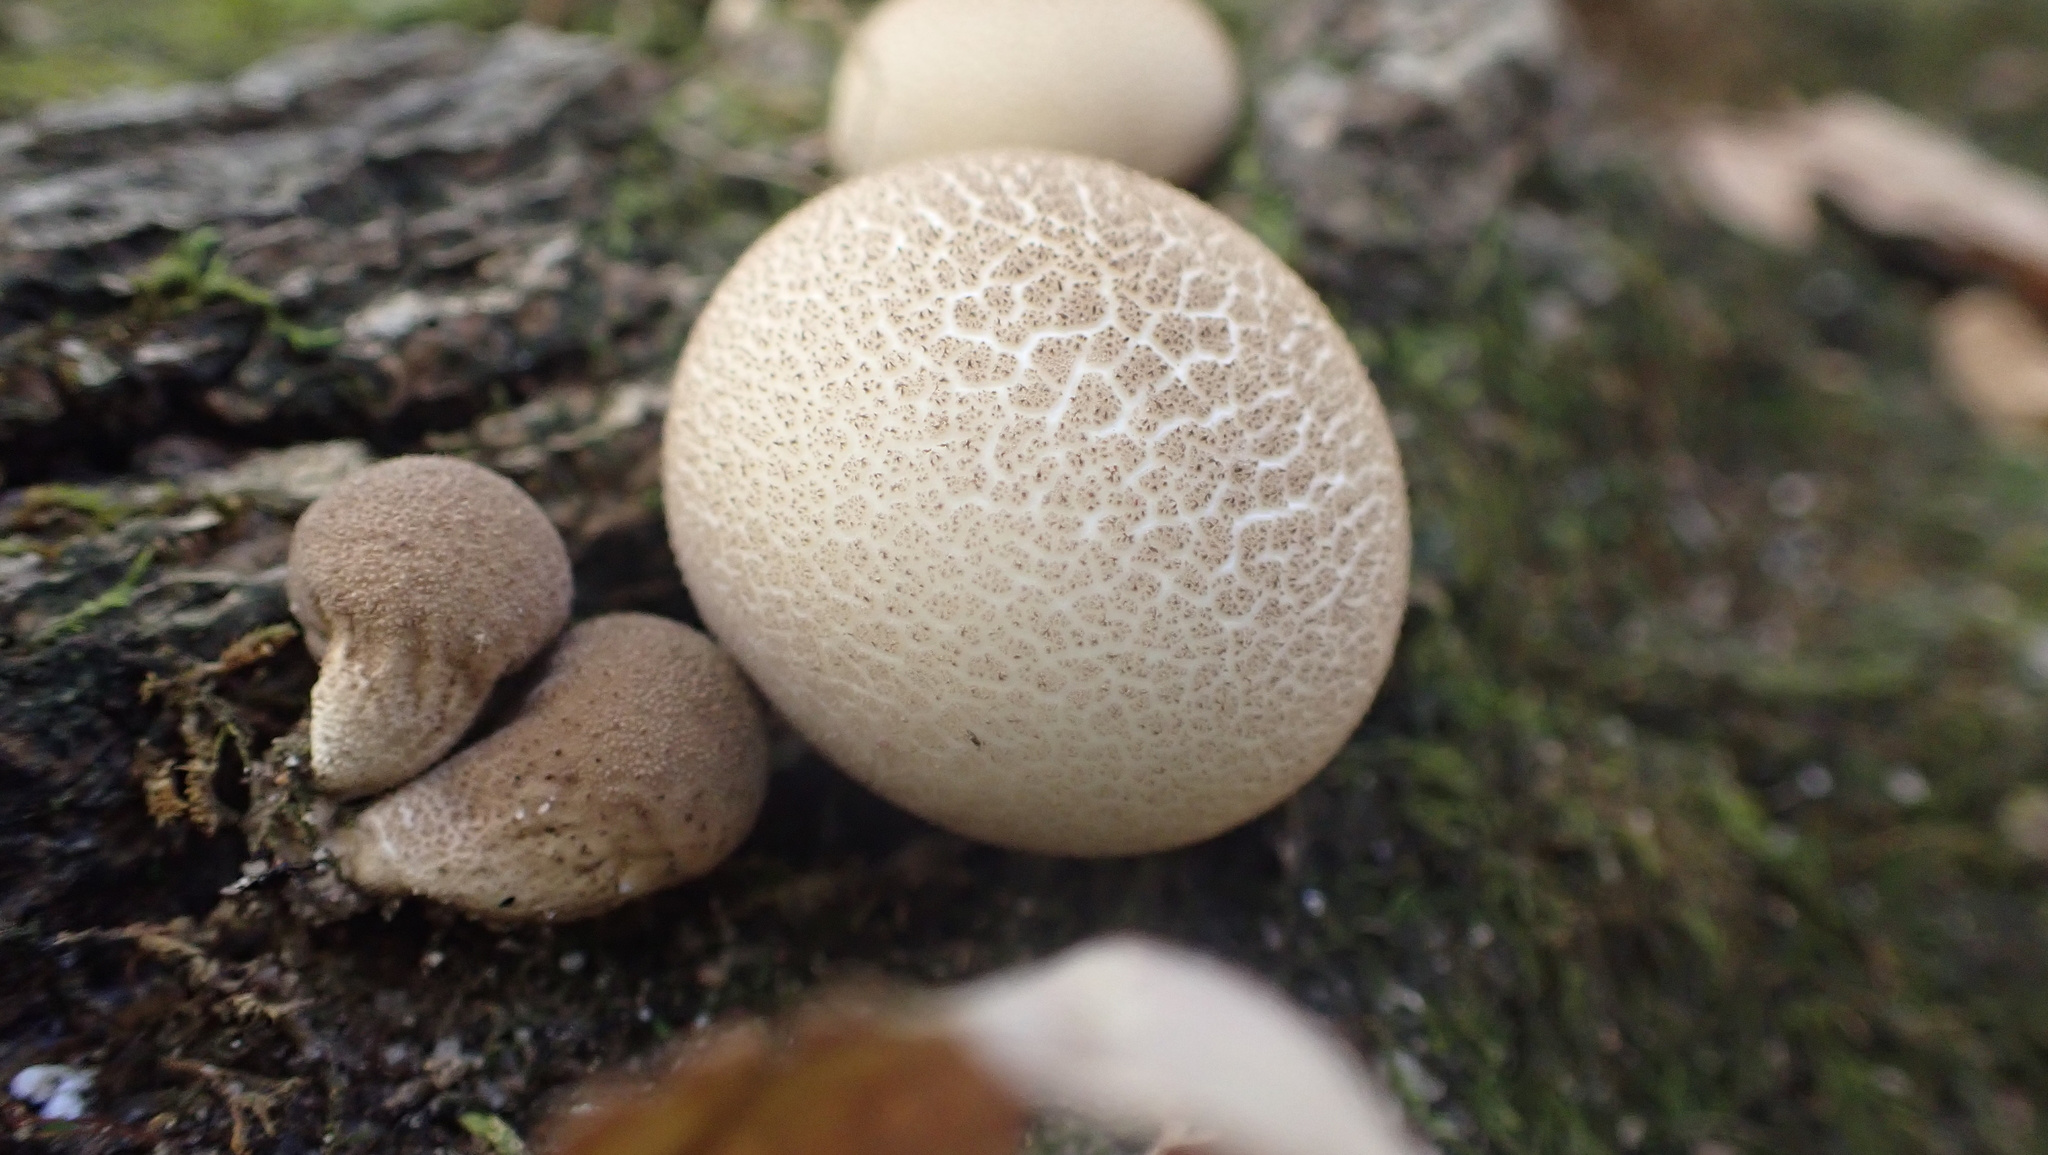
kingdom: Fungi
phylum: Basidiomycota
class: Agaricomycetes
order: Agaricales
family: Lycoperdaceae
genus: Apioperdon
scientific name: Apioperdon pyriforme
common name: Pear-shaped puffball
